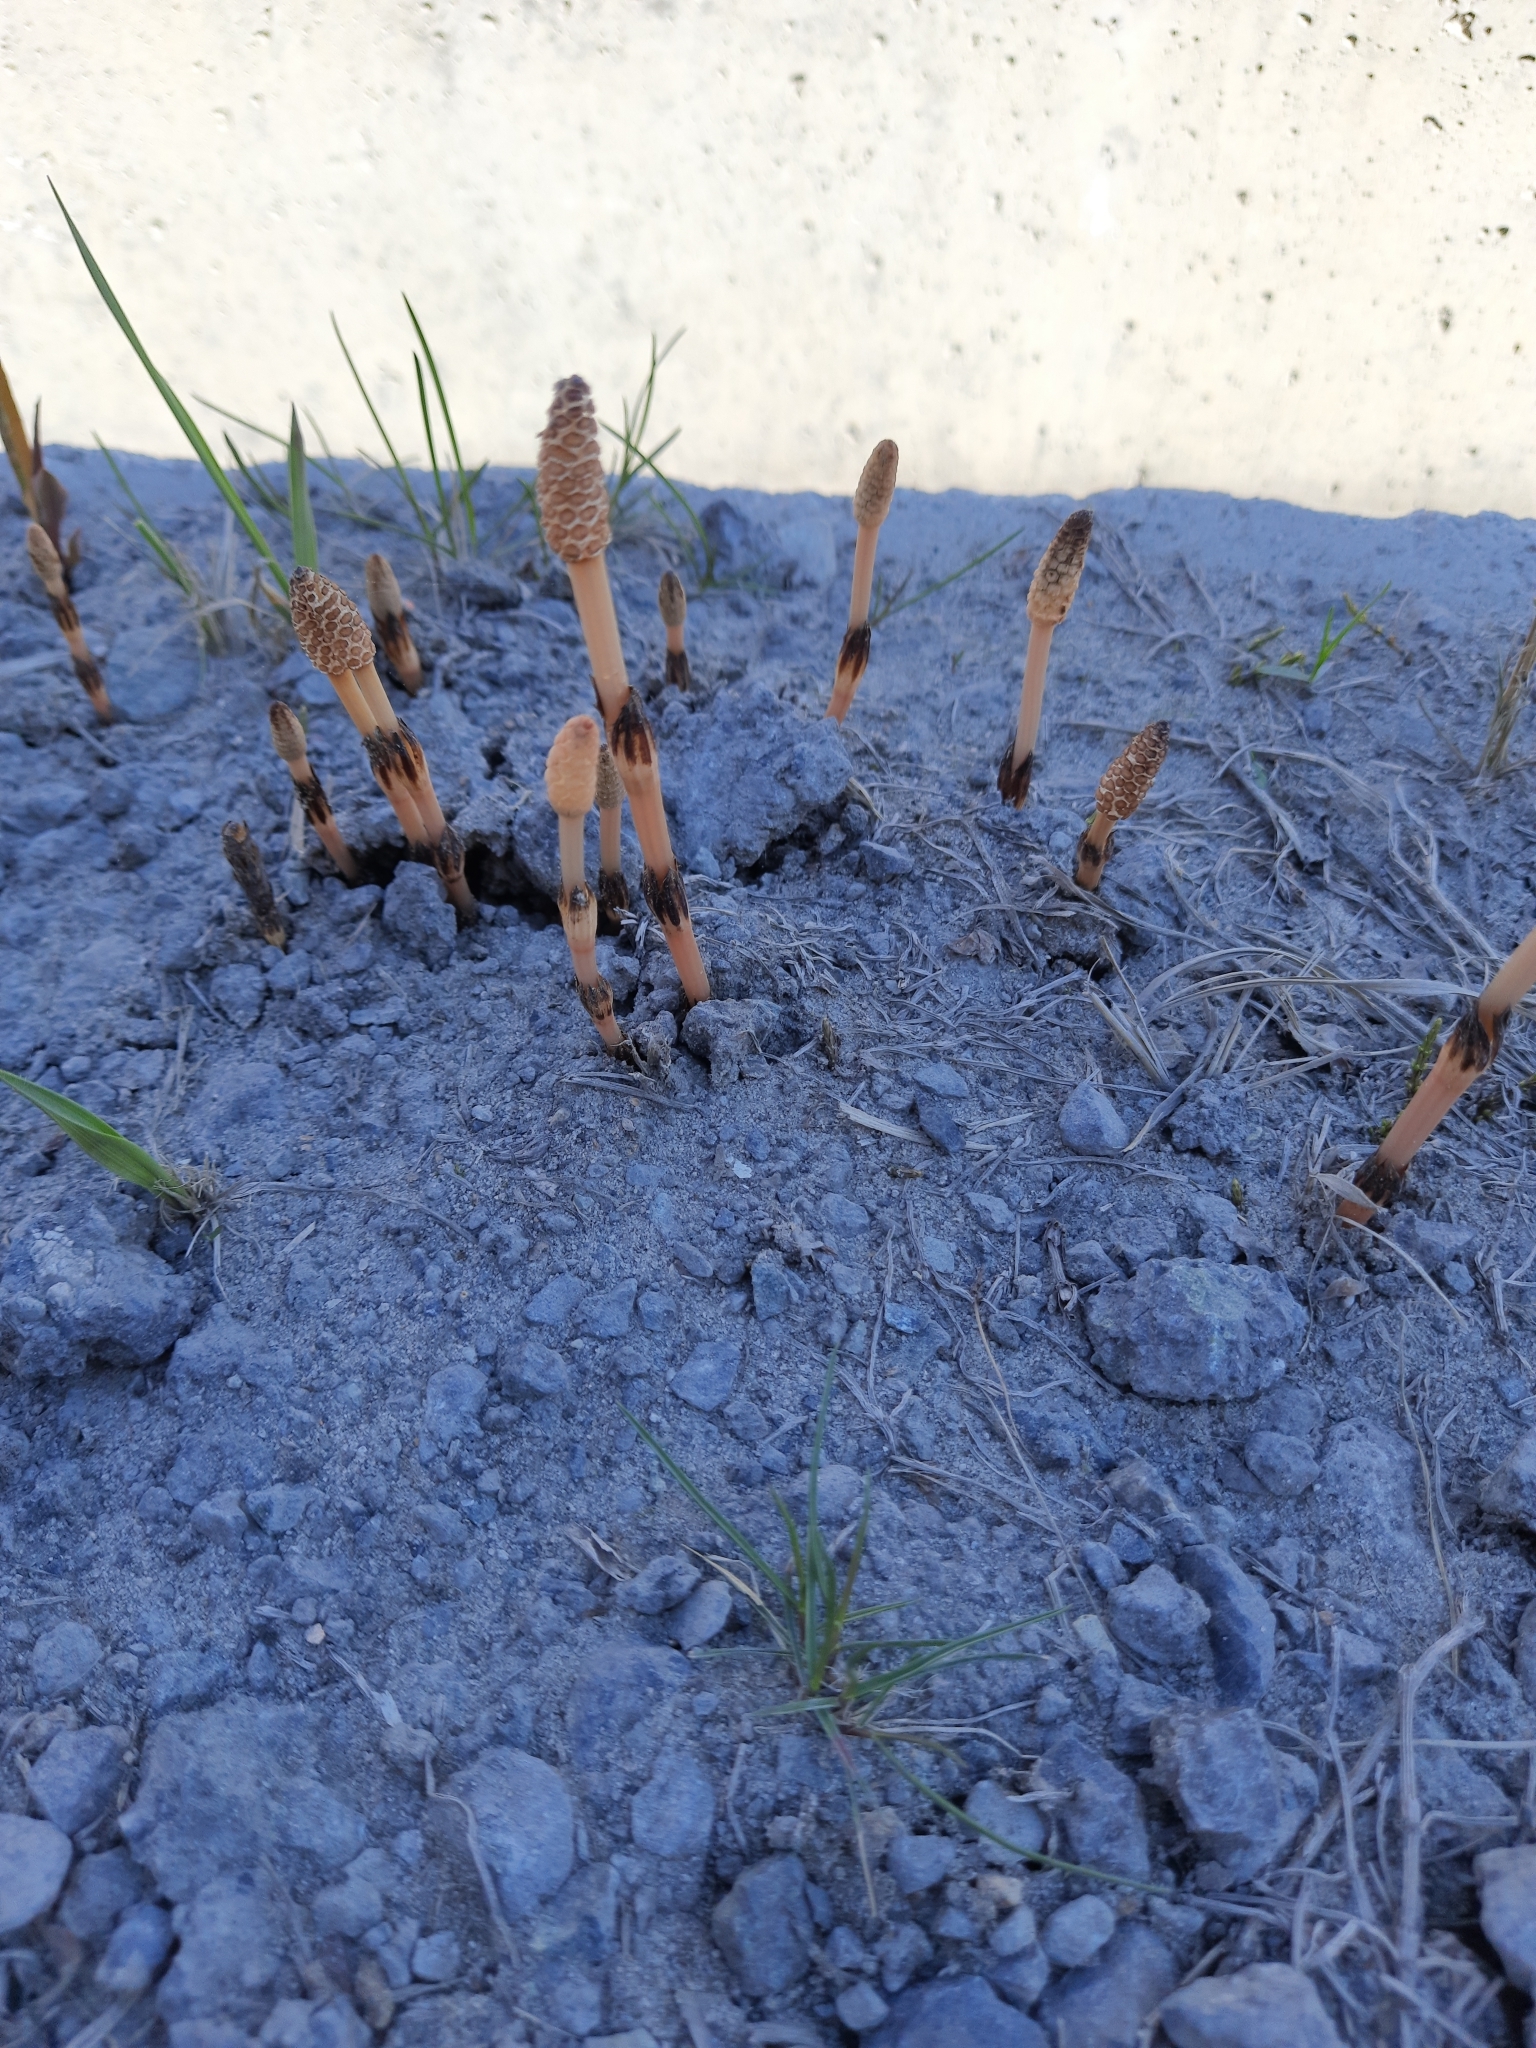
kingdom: Plantae
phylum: Tracheophyta
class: Polypodiopsida
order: Equisetales
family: Equisetaceae
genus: Equisetum
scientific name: Equisetum arvense
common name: Field horsetail
